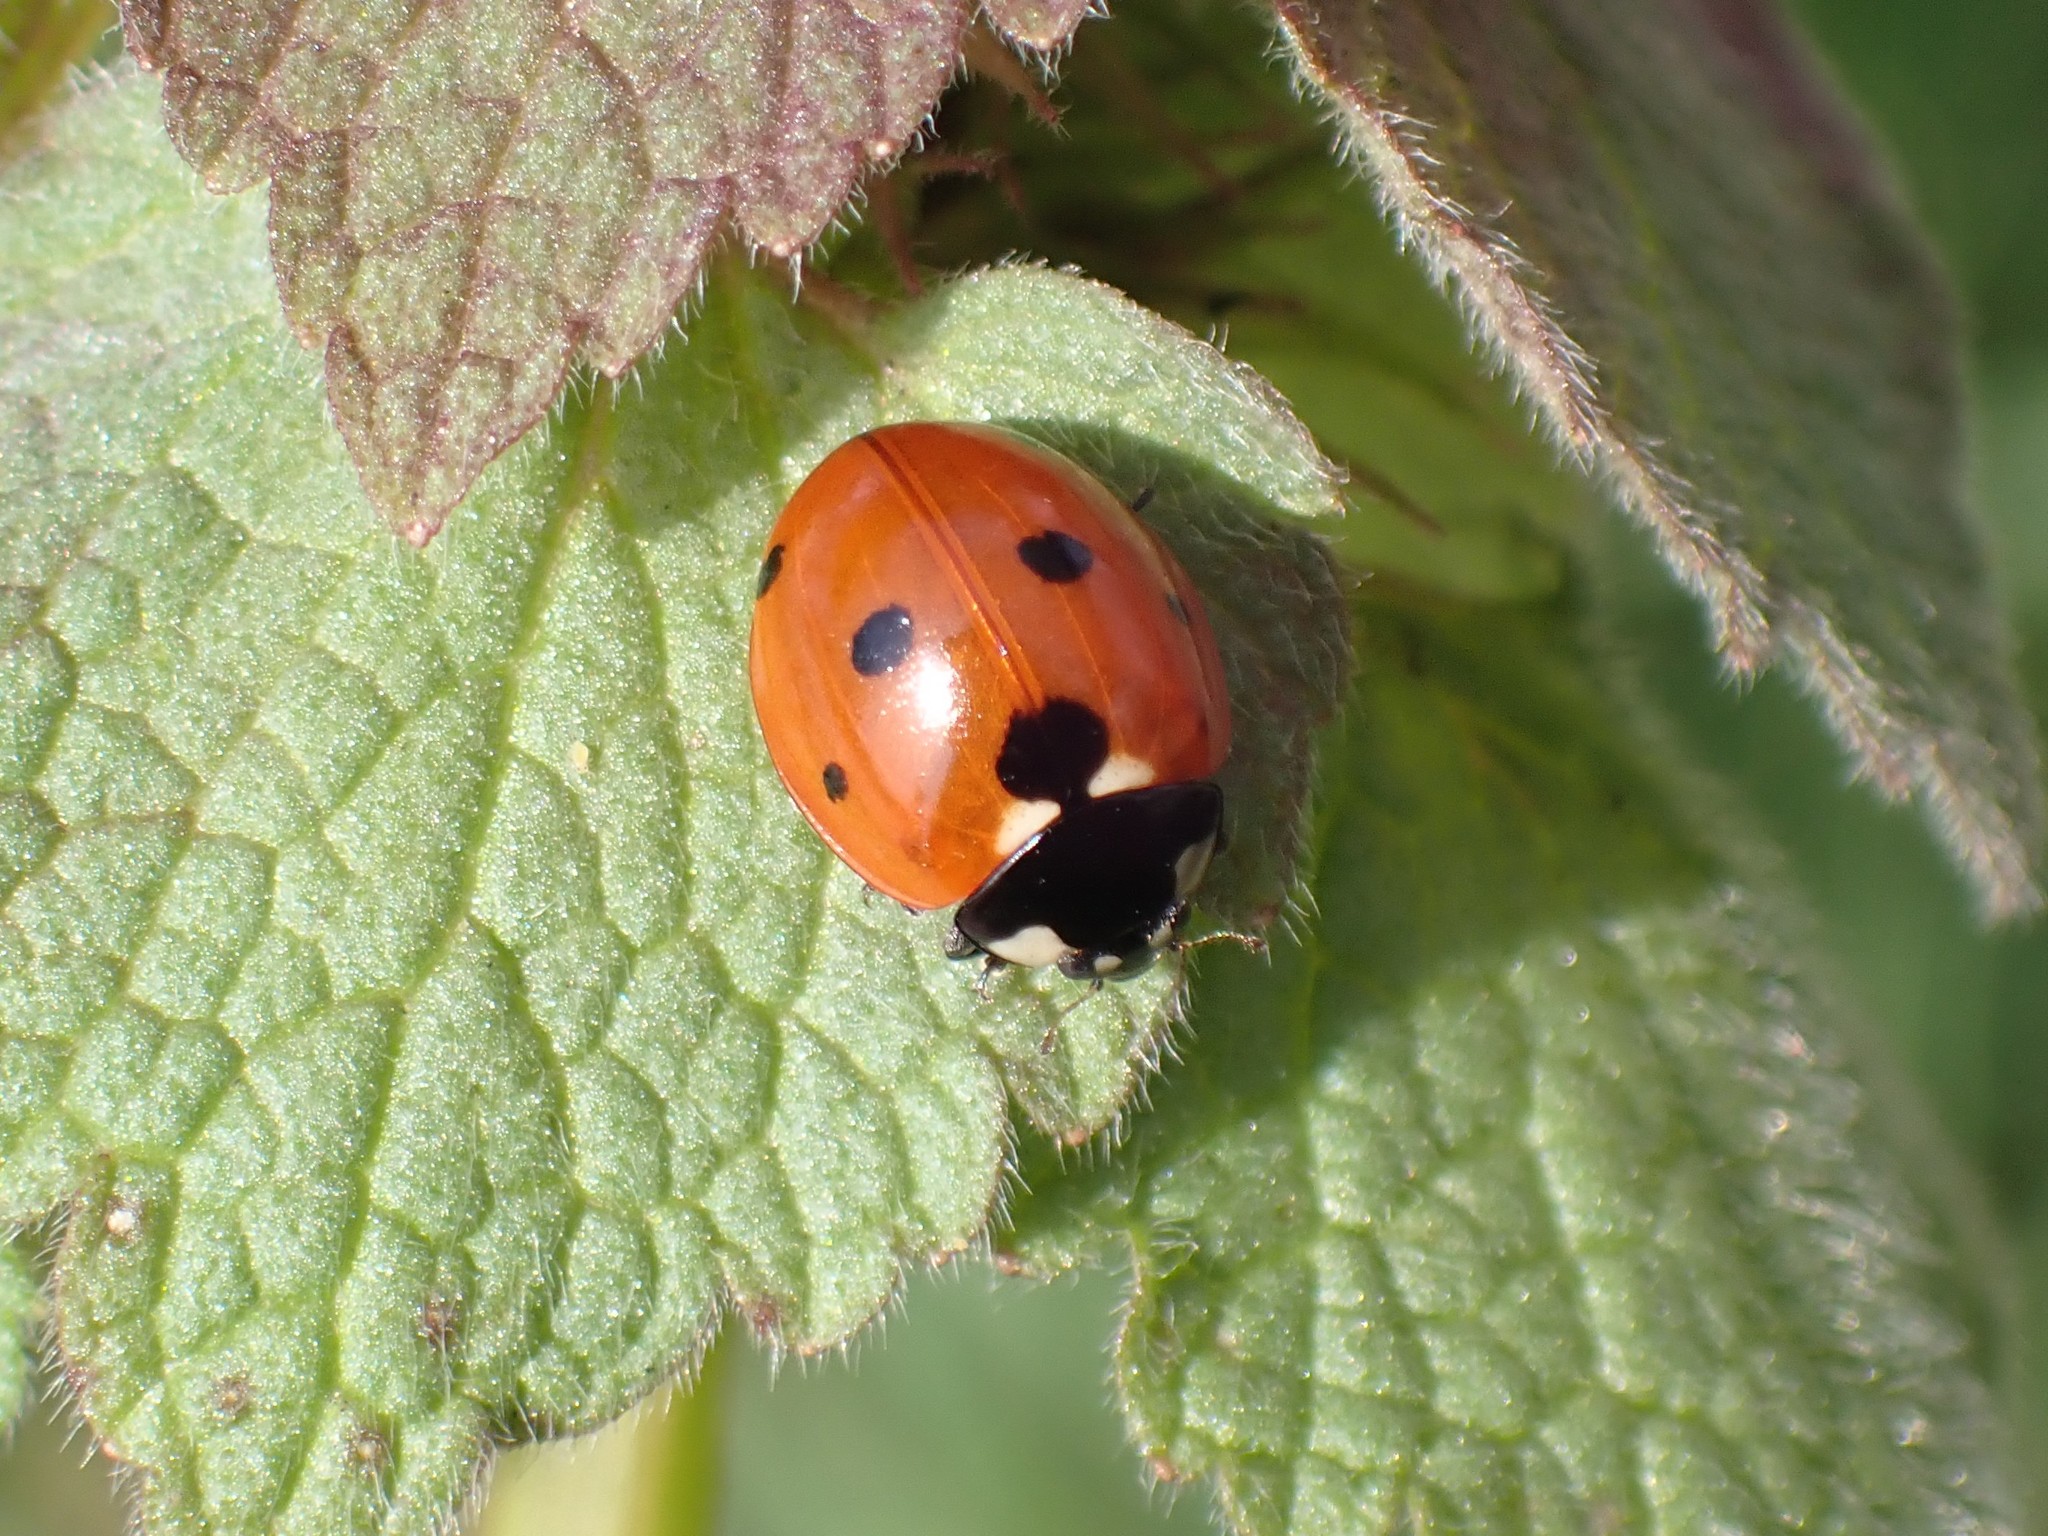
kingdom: Animalia
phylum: Arthropoda
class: Insecta
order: Coleoptera
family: Coccinellidae
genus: Coccinella
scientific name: Coccinella septempunctata
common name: Sevenspotted lady beetle
